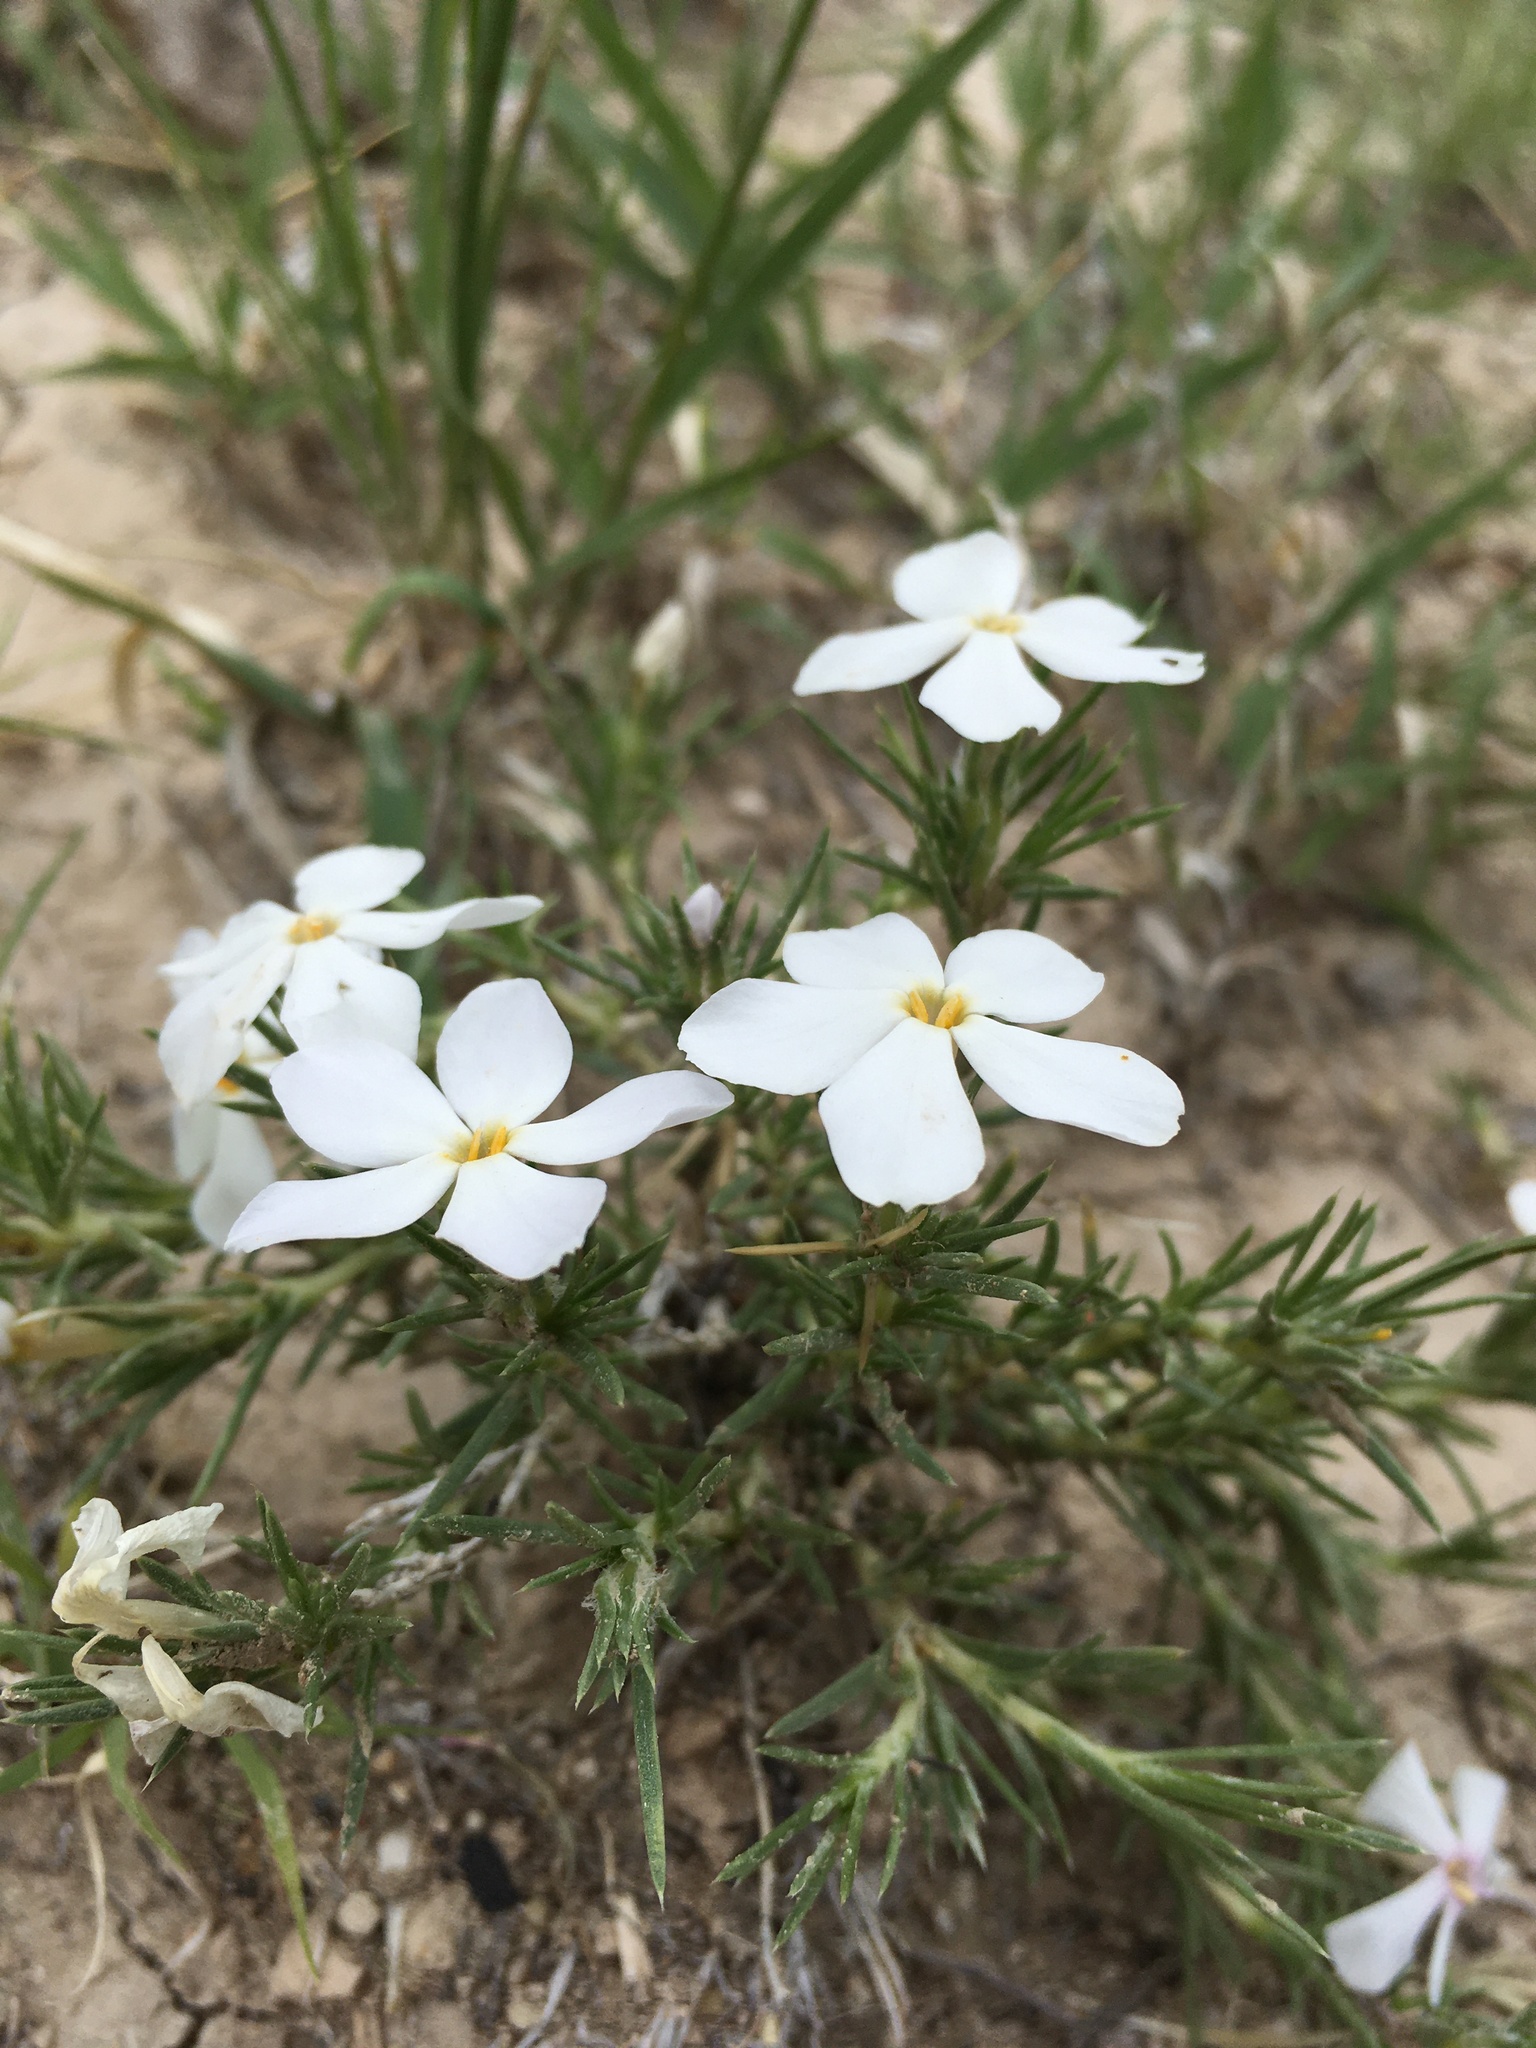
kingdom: Plantae
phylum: Tracheophyta
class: Magnoliopsida
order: Ericales
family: Polemoniaceae
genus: Phlox
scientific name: Phlox andicola
